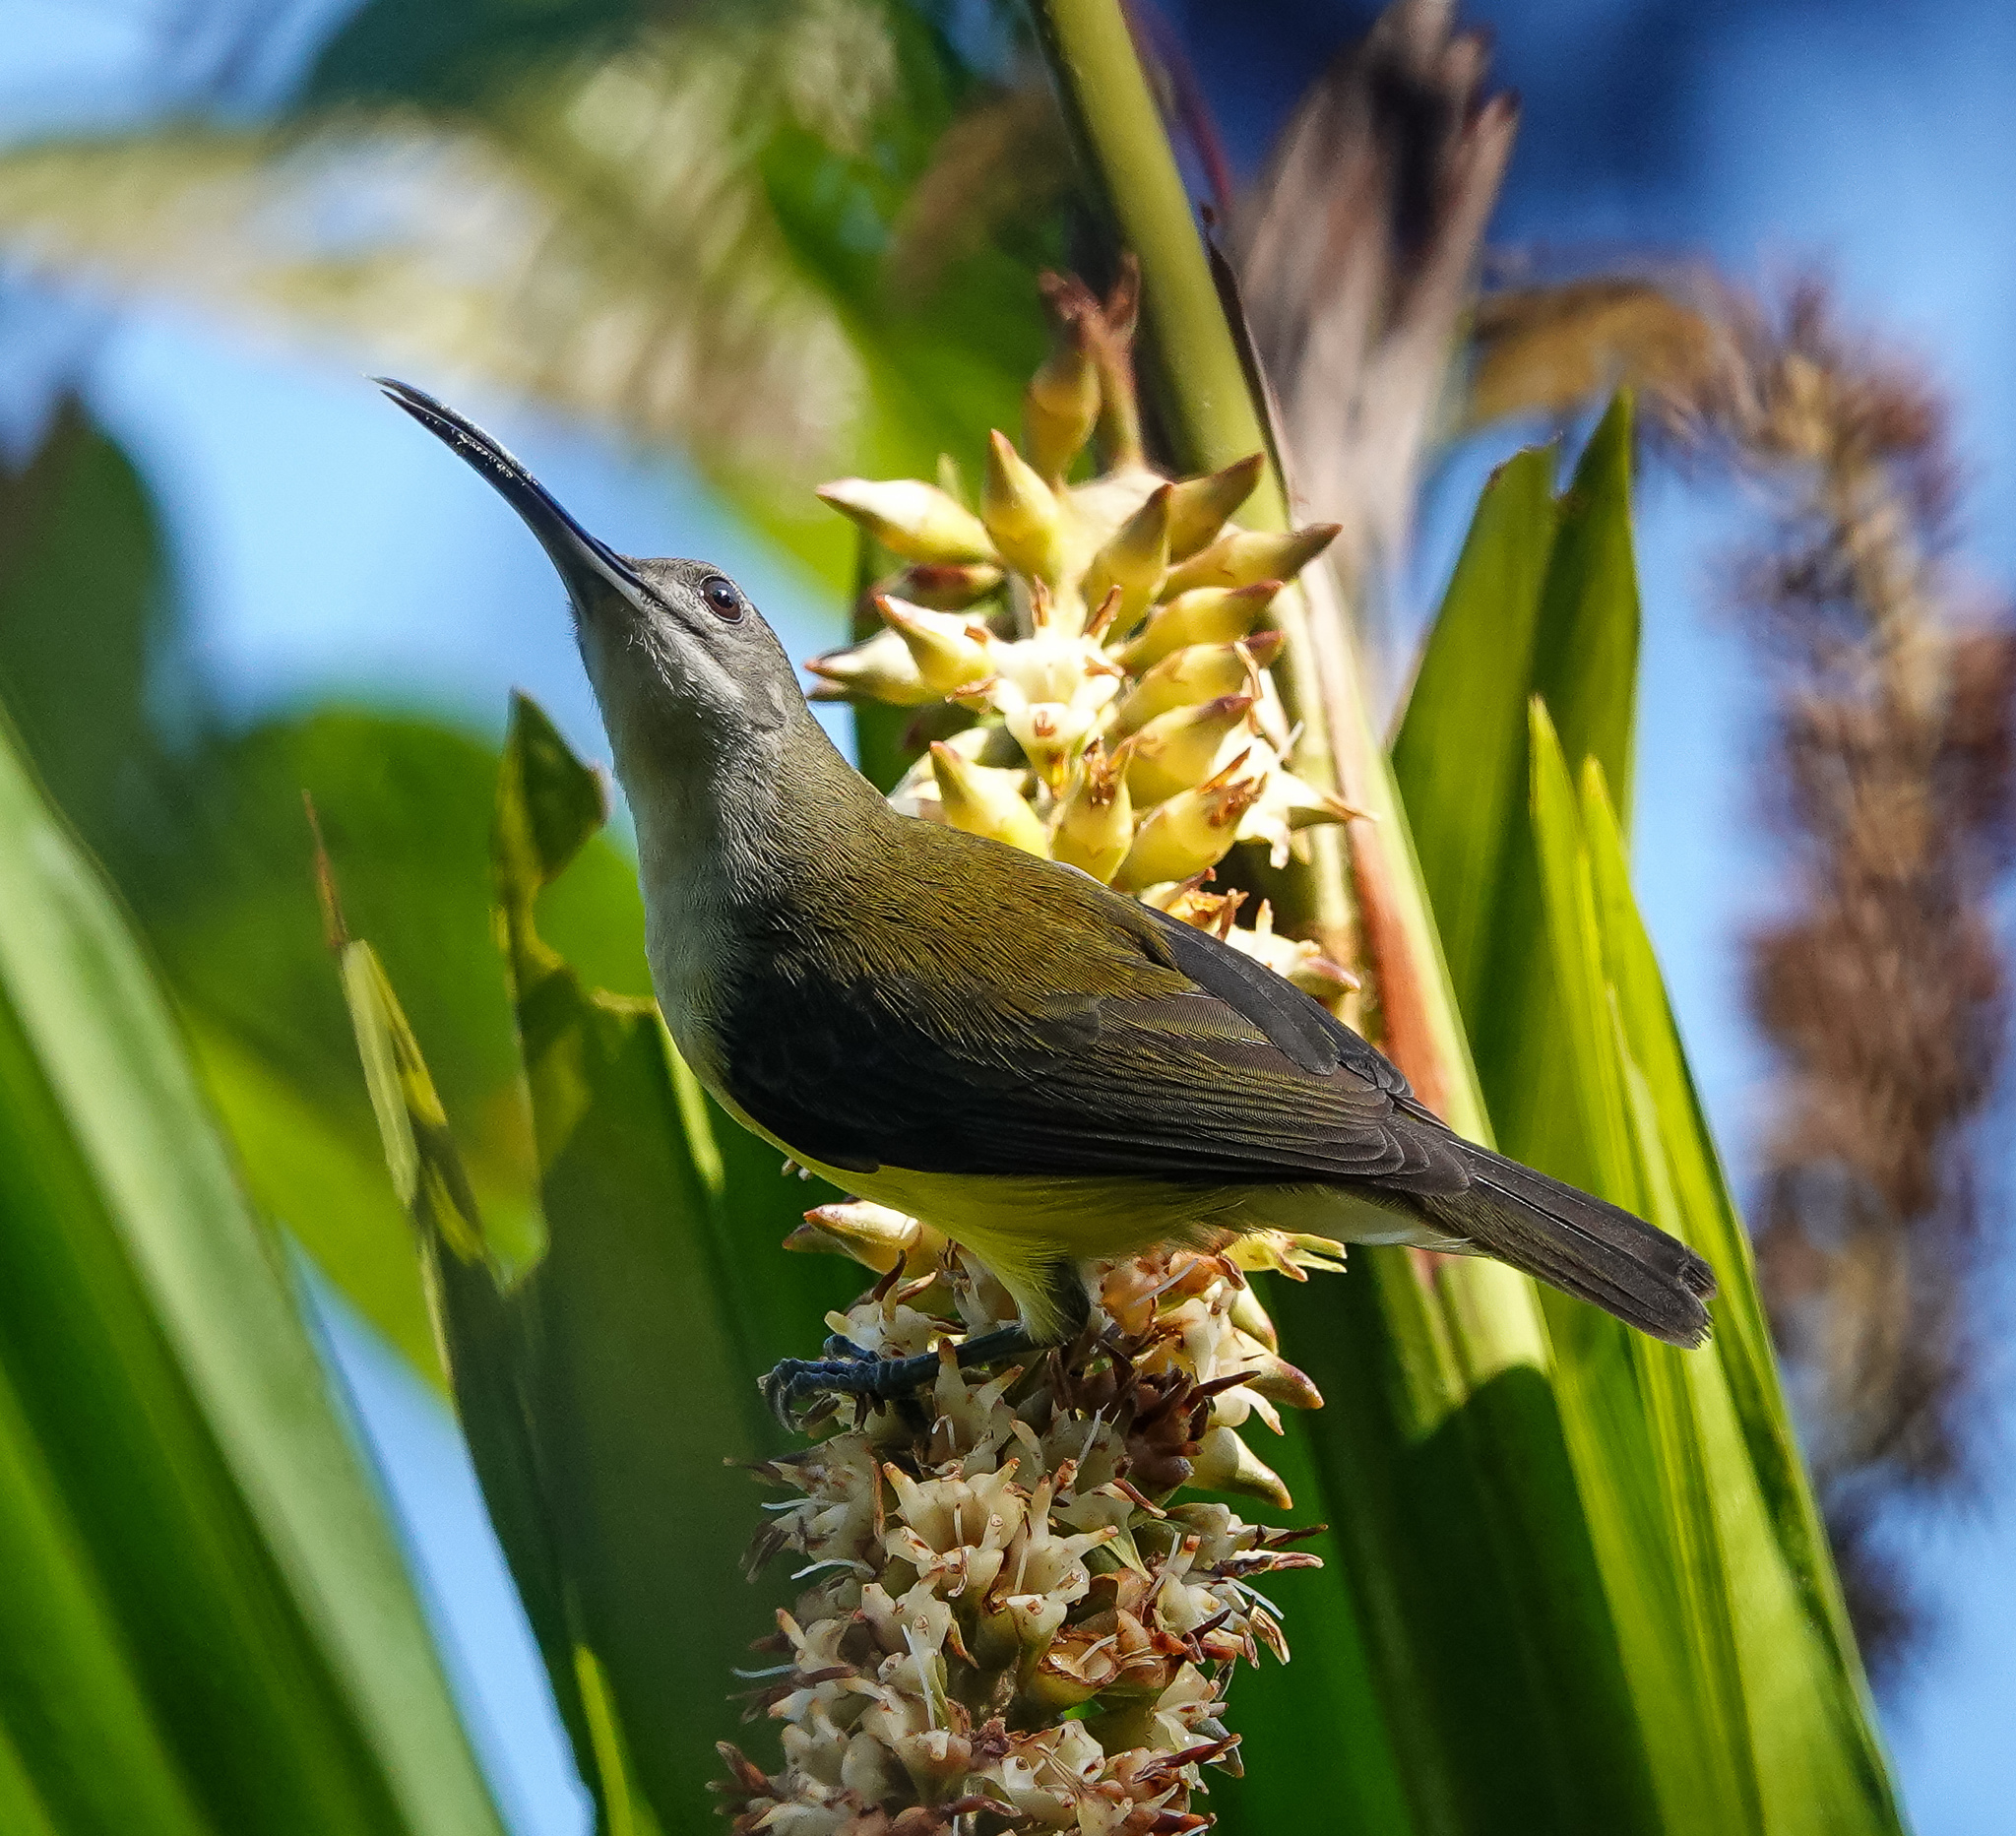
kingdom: Animalia
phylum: Chordata
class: Aves
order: Passeriformes
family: Nectariniidae
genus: Arachnothera
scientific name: Arachnothera longirostra
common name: Little spiderhunter
